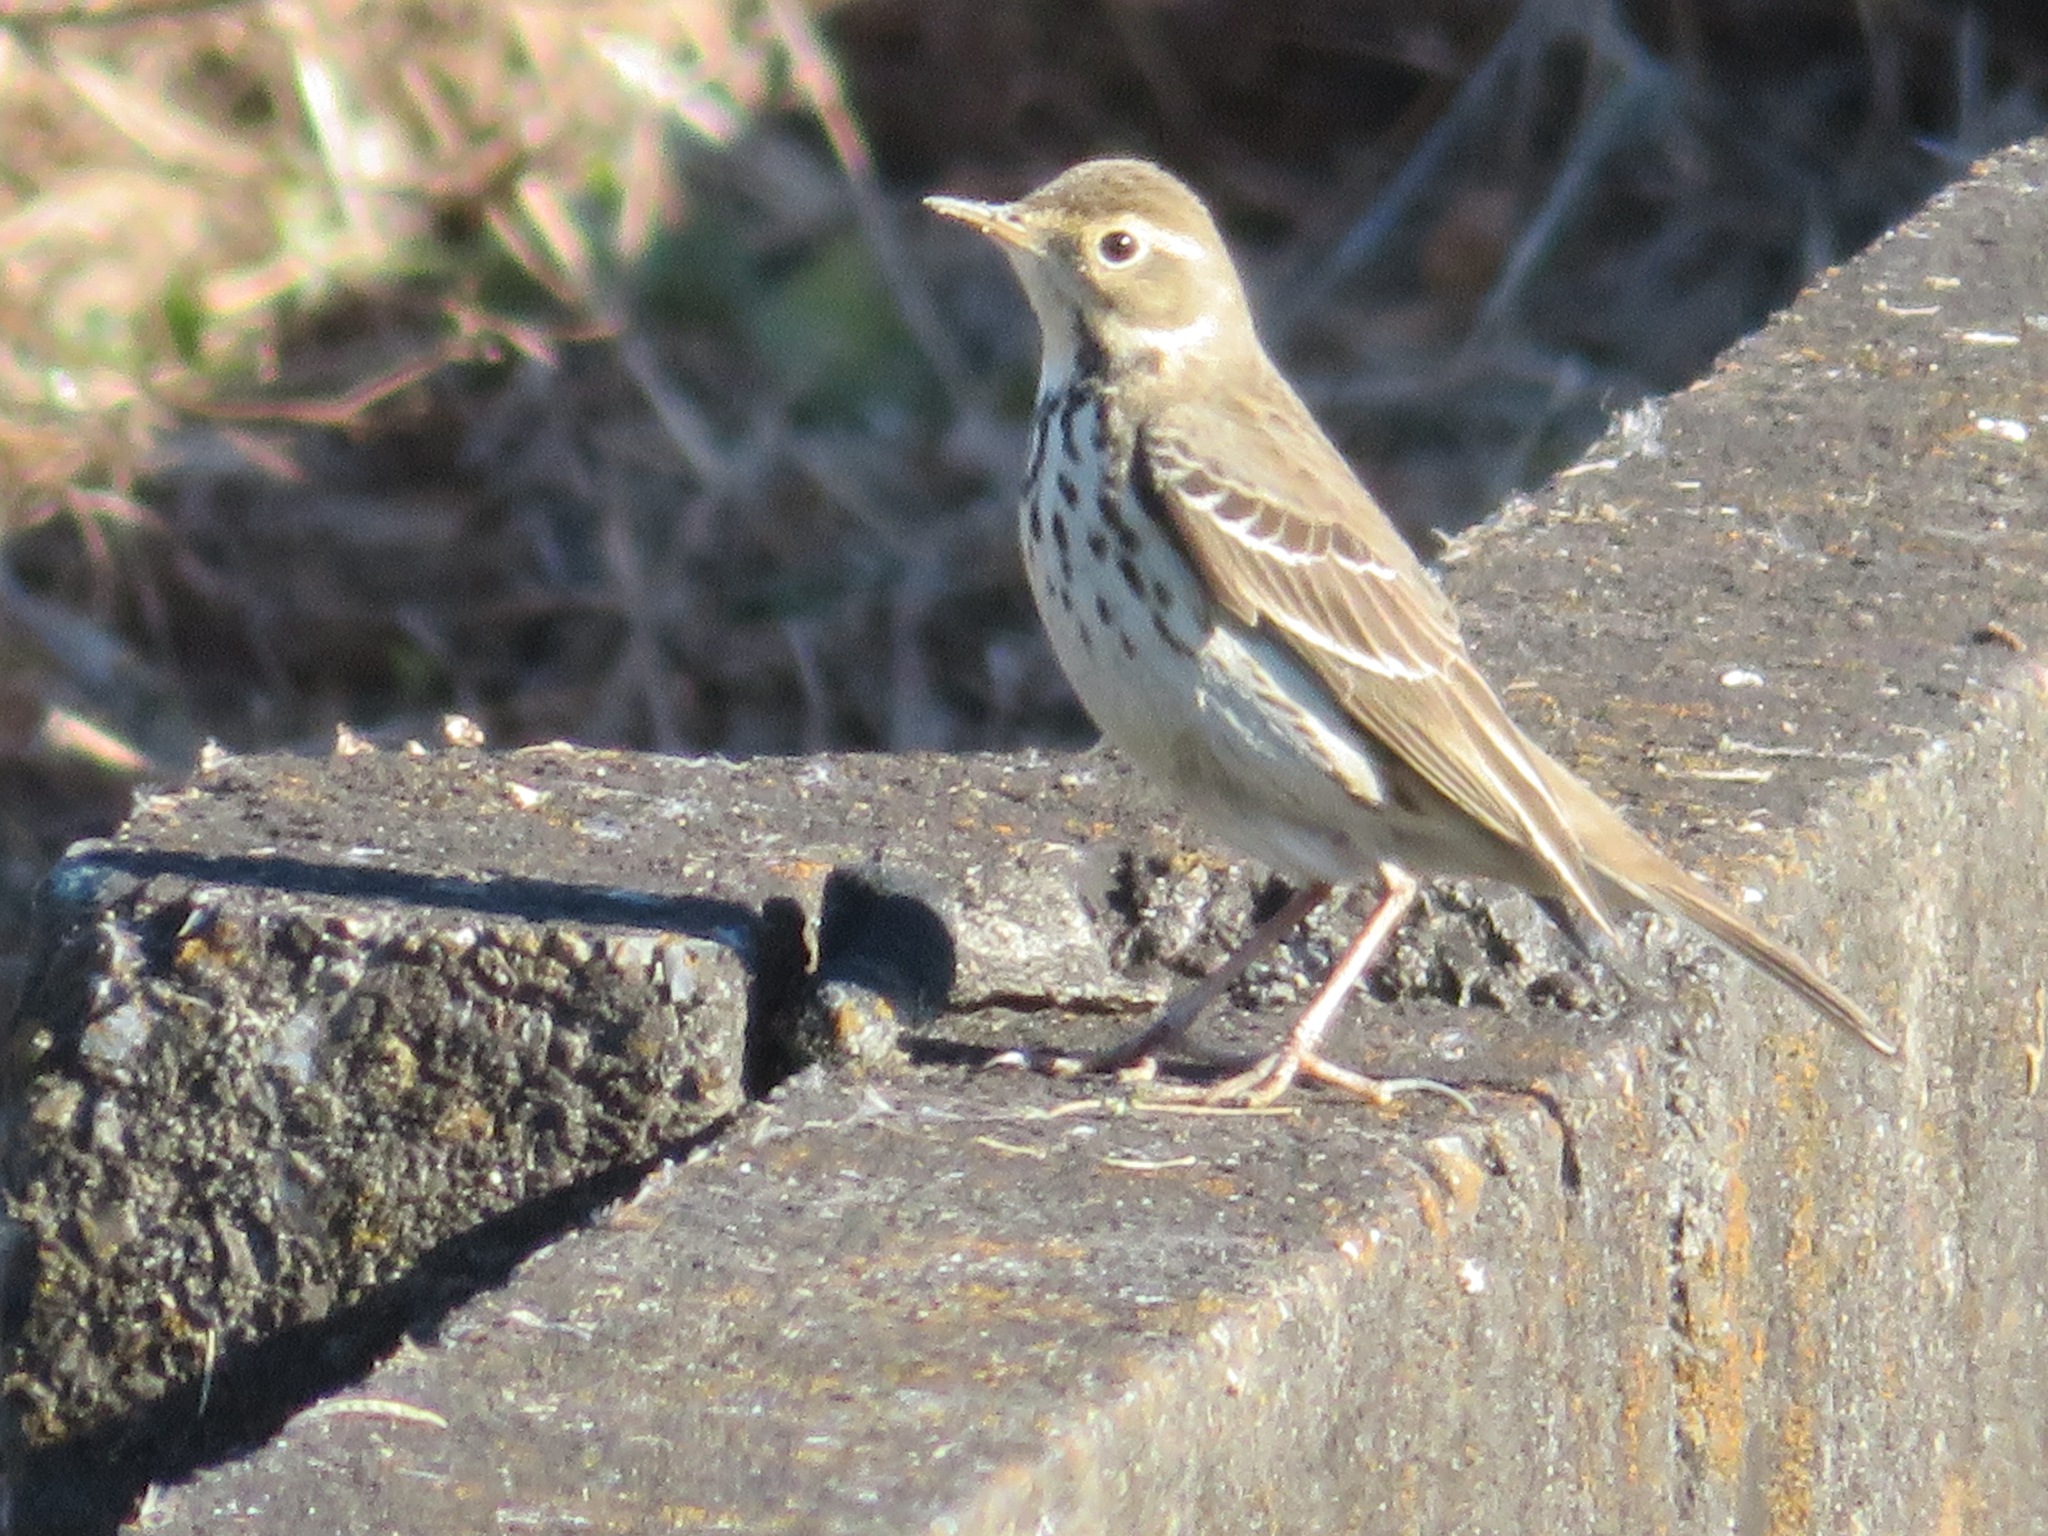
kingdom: Animalia
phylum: Chordata
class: Aves
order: Passeriformes
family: Motacillidae
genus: Anthus
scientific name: Anthus rubescens
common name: Buff-bellied pipit
